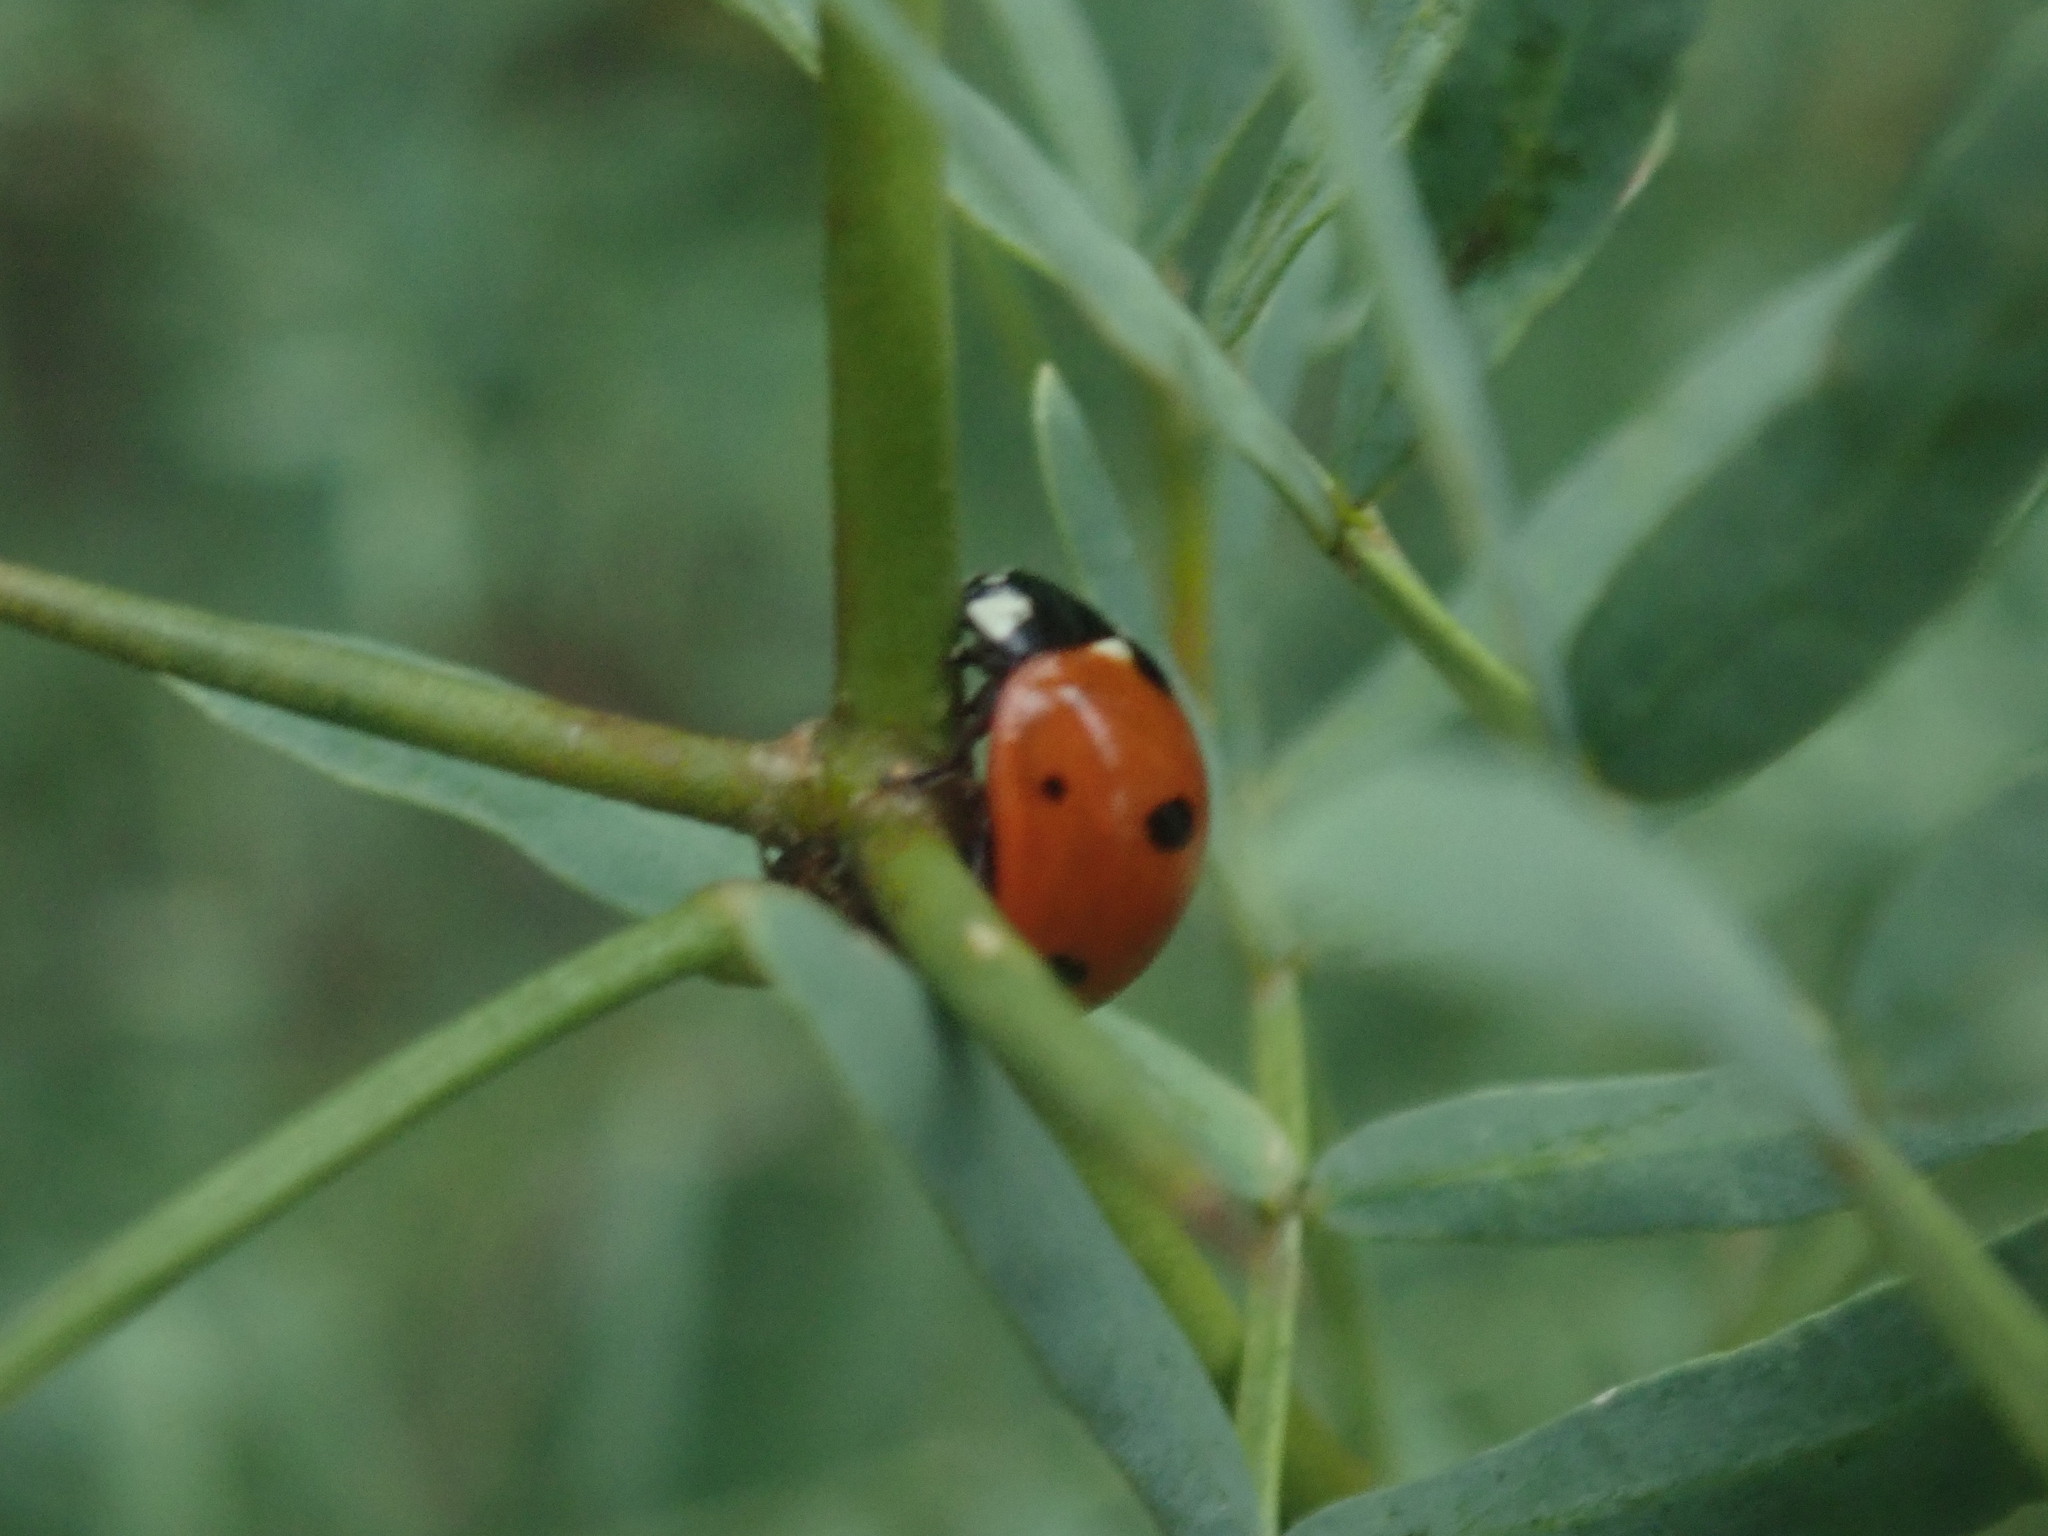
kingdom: Animalia
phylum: Arthropoda
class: Insecta
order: Coleoptera
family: Coccinellidae
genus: Coccinella
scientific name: Coccinella septempunctata
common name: Sevenspotted lady beetle
